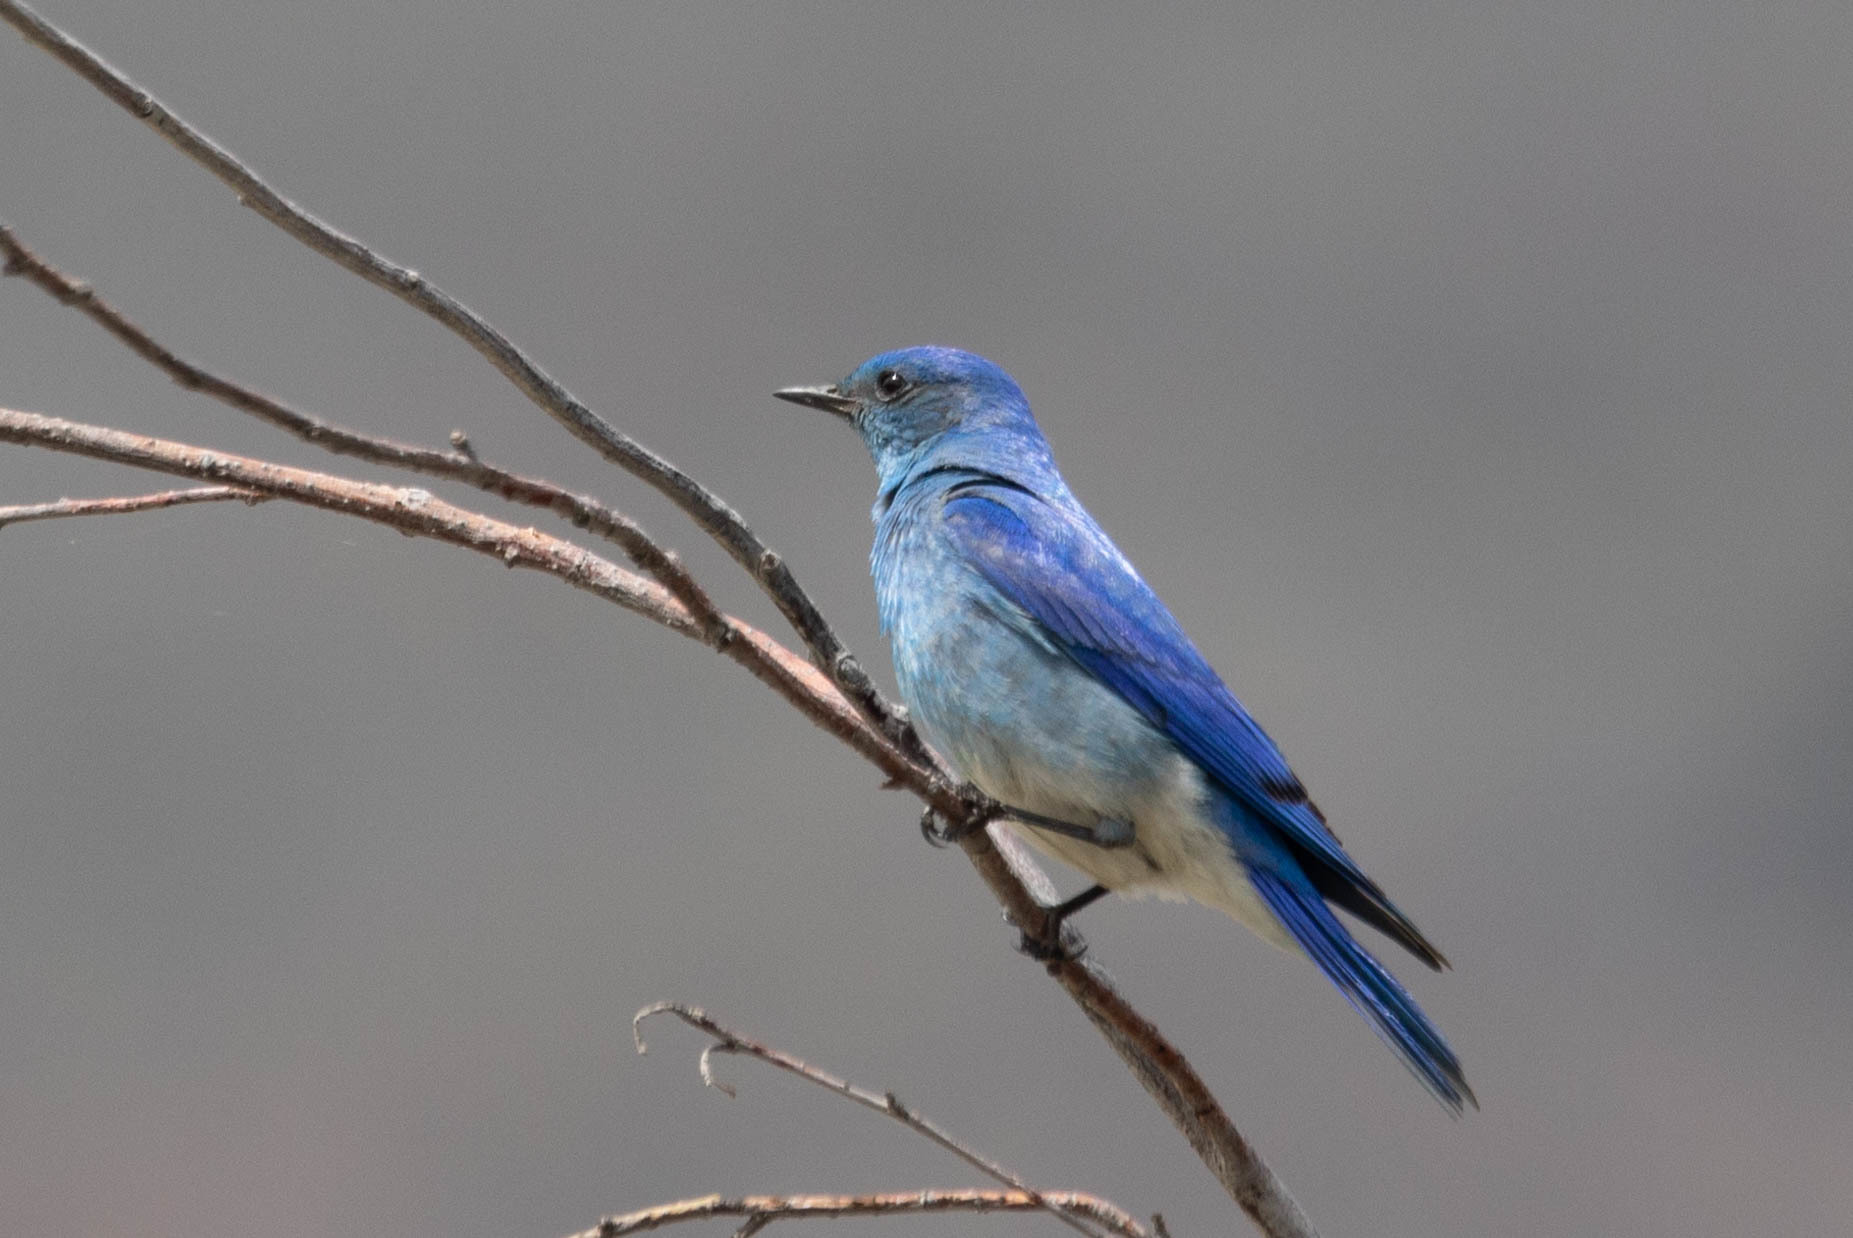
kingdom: Animalia
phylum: Chordata
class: Aves
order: Passeriformes
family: Turdidae
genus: Sialia
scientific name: Sialia currucoides
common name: Mountain bluebird
